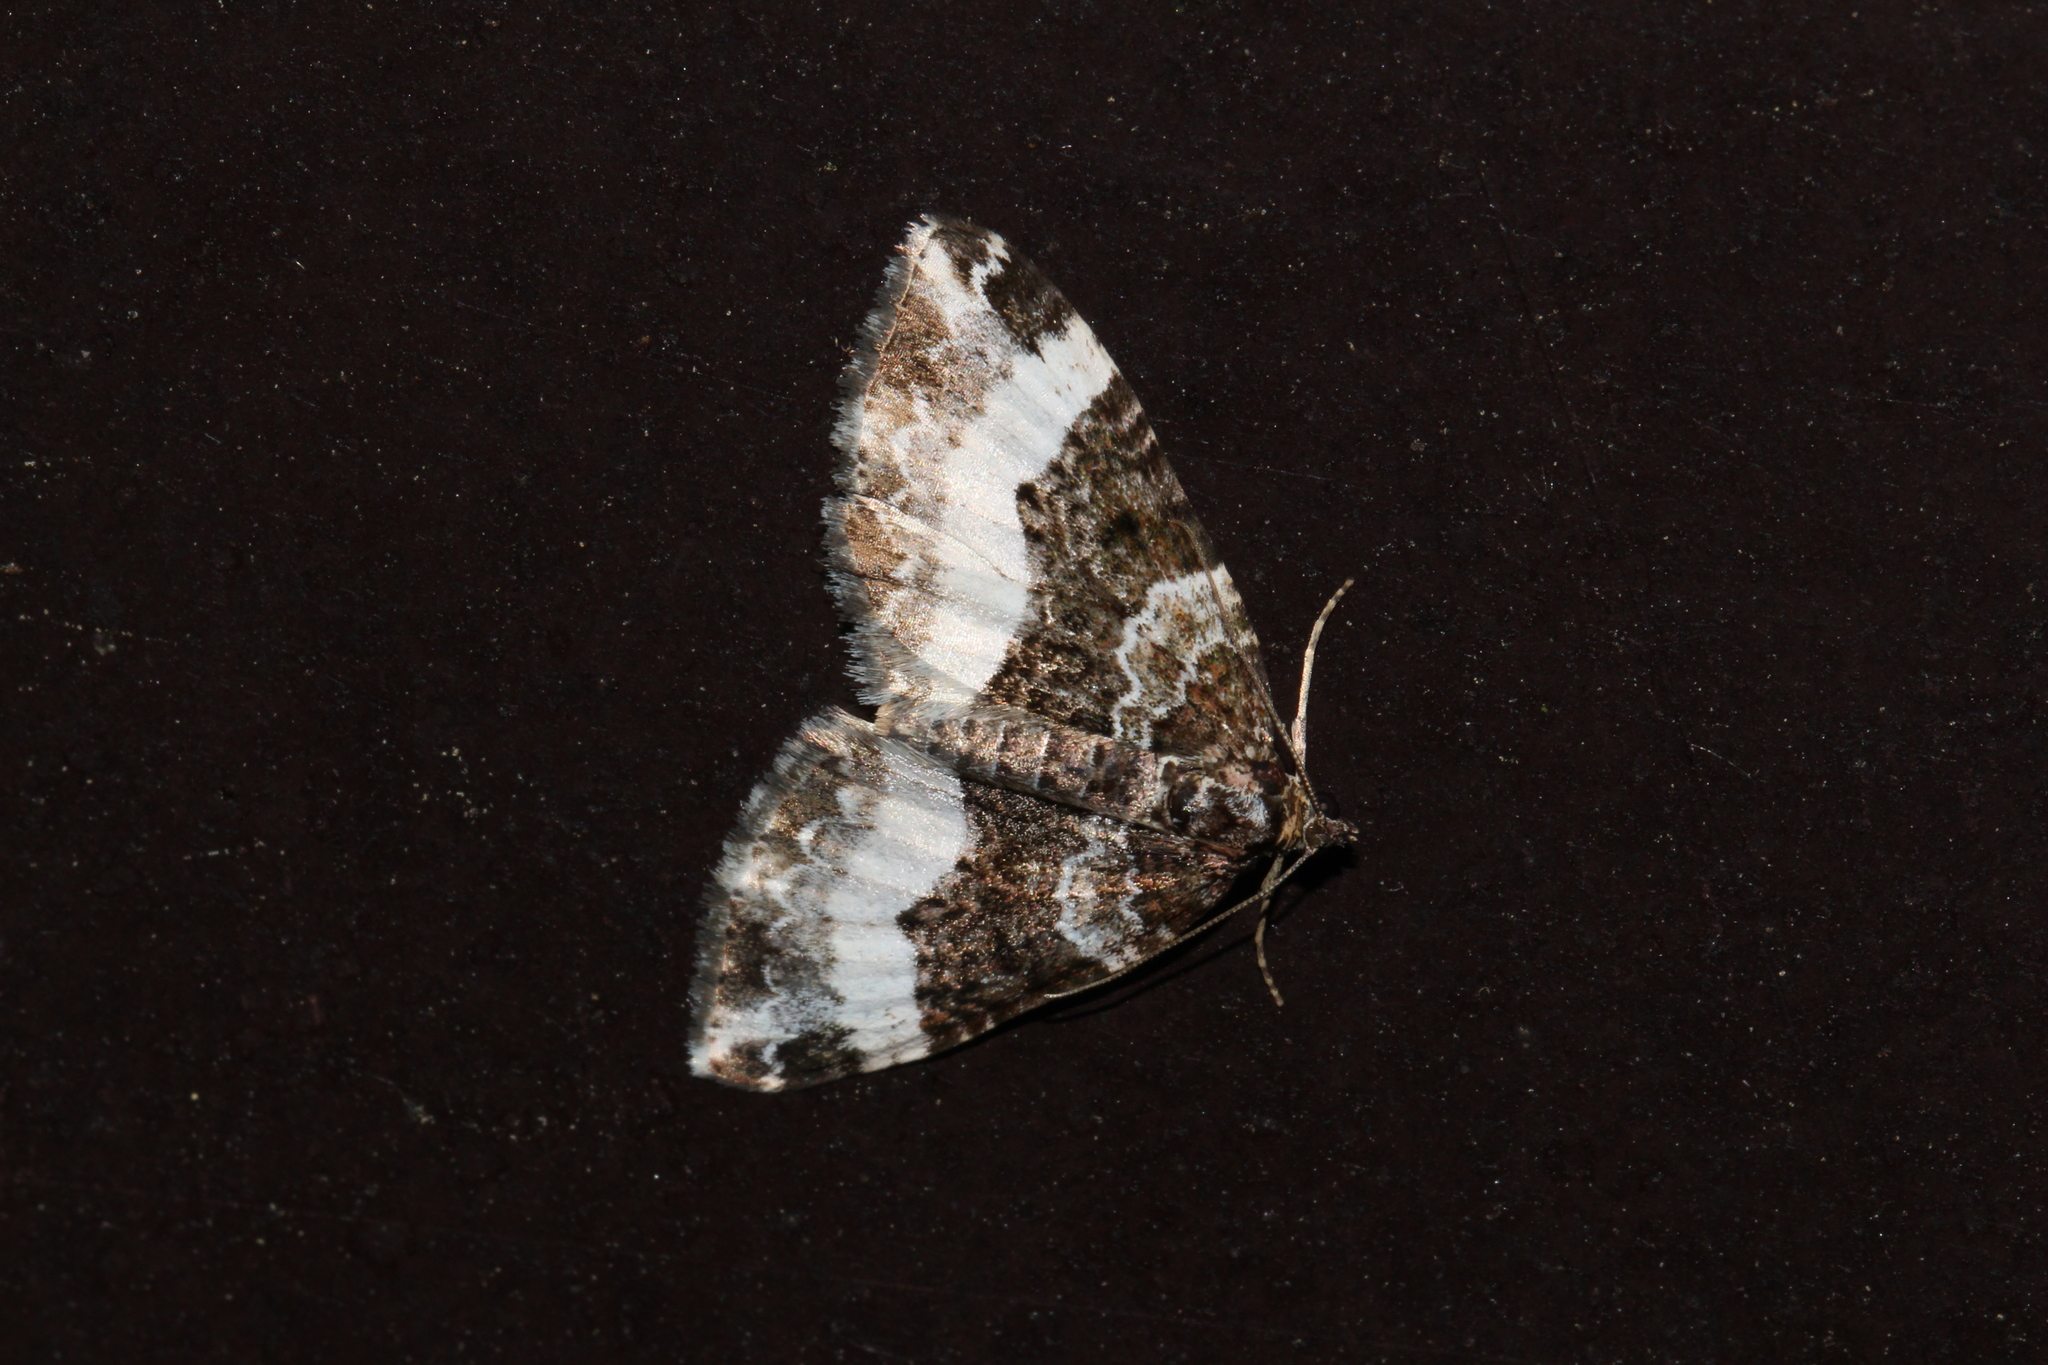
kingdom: Animalia
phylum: Arthropoda
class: Insecta
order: Lepidoptera
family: Geometridae
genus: Euphyia
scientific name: Euphyia unangulata
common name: Sharp-angled carpet
